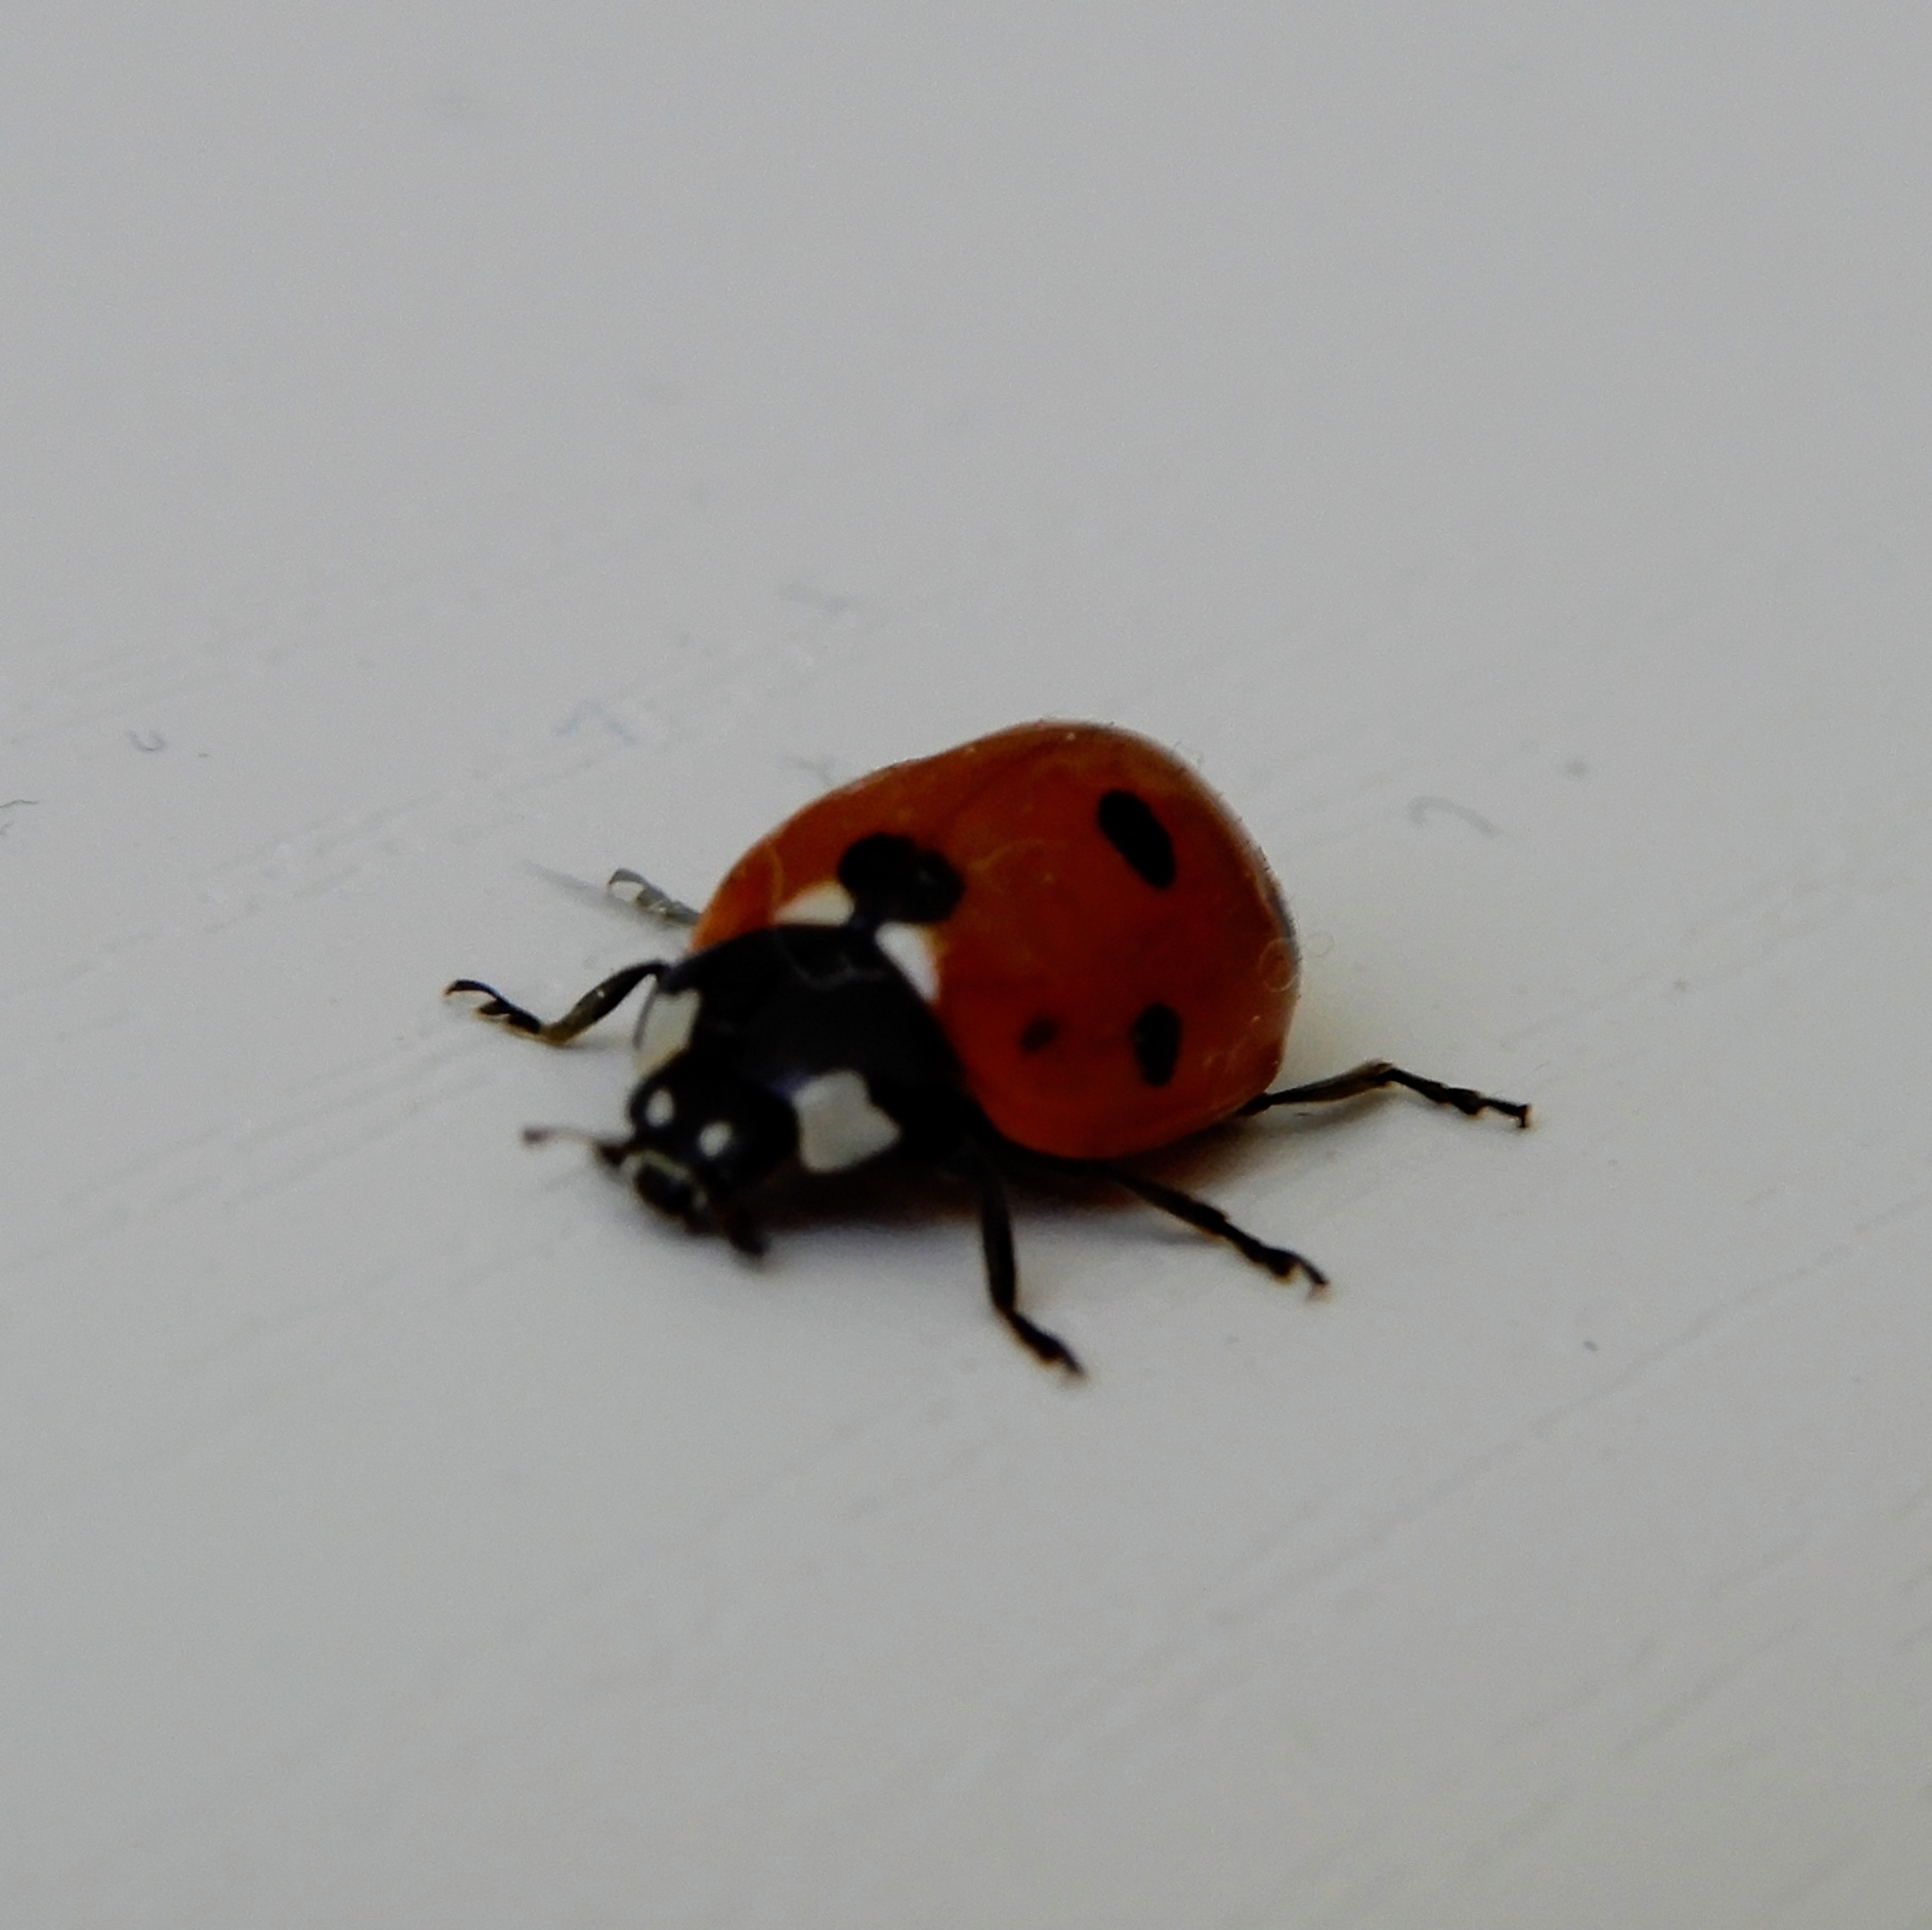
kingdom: Animalia
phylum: Arthropoda
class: Insecta
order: Coleoptera
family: Coccinellidae
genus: Coccinella
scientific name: Coccinella septempunctata
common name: Sevenspotted lady beetle
